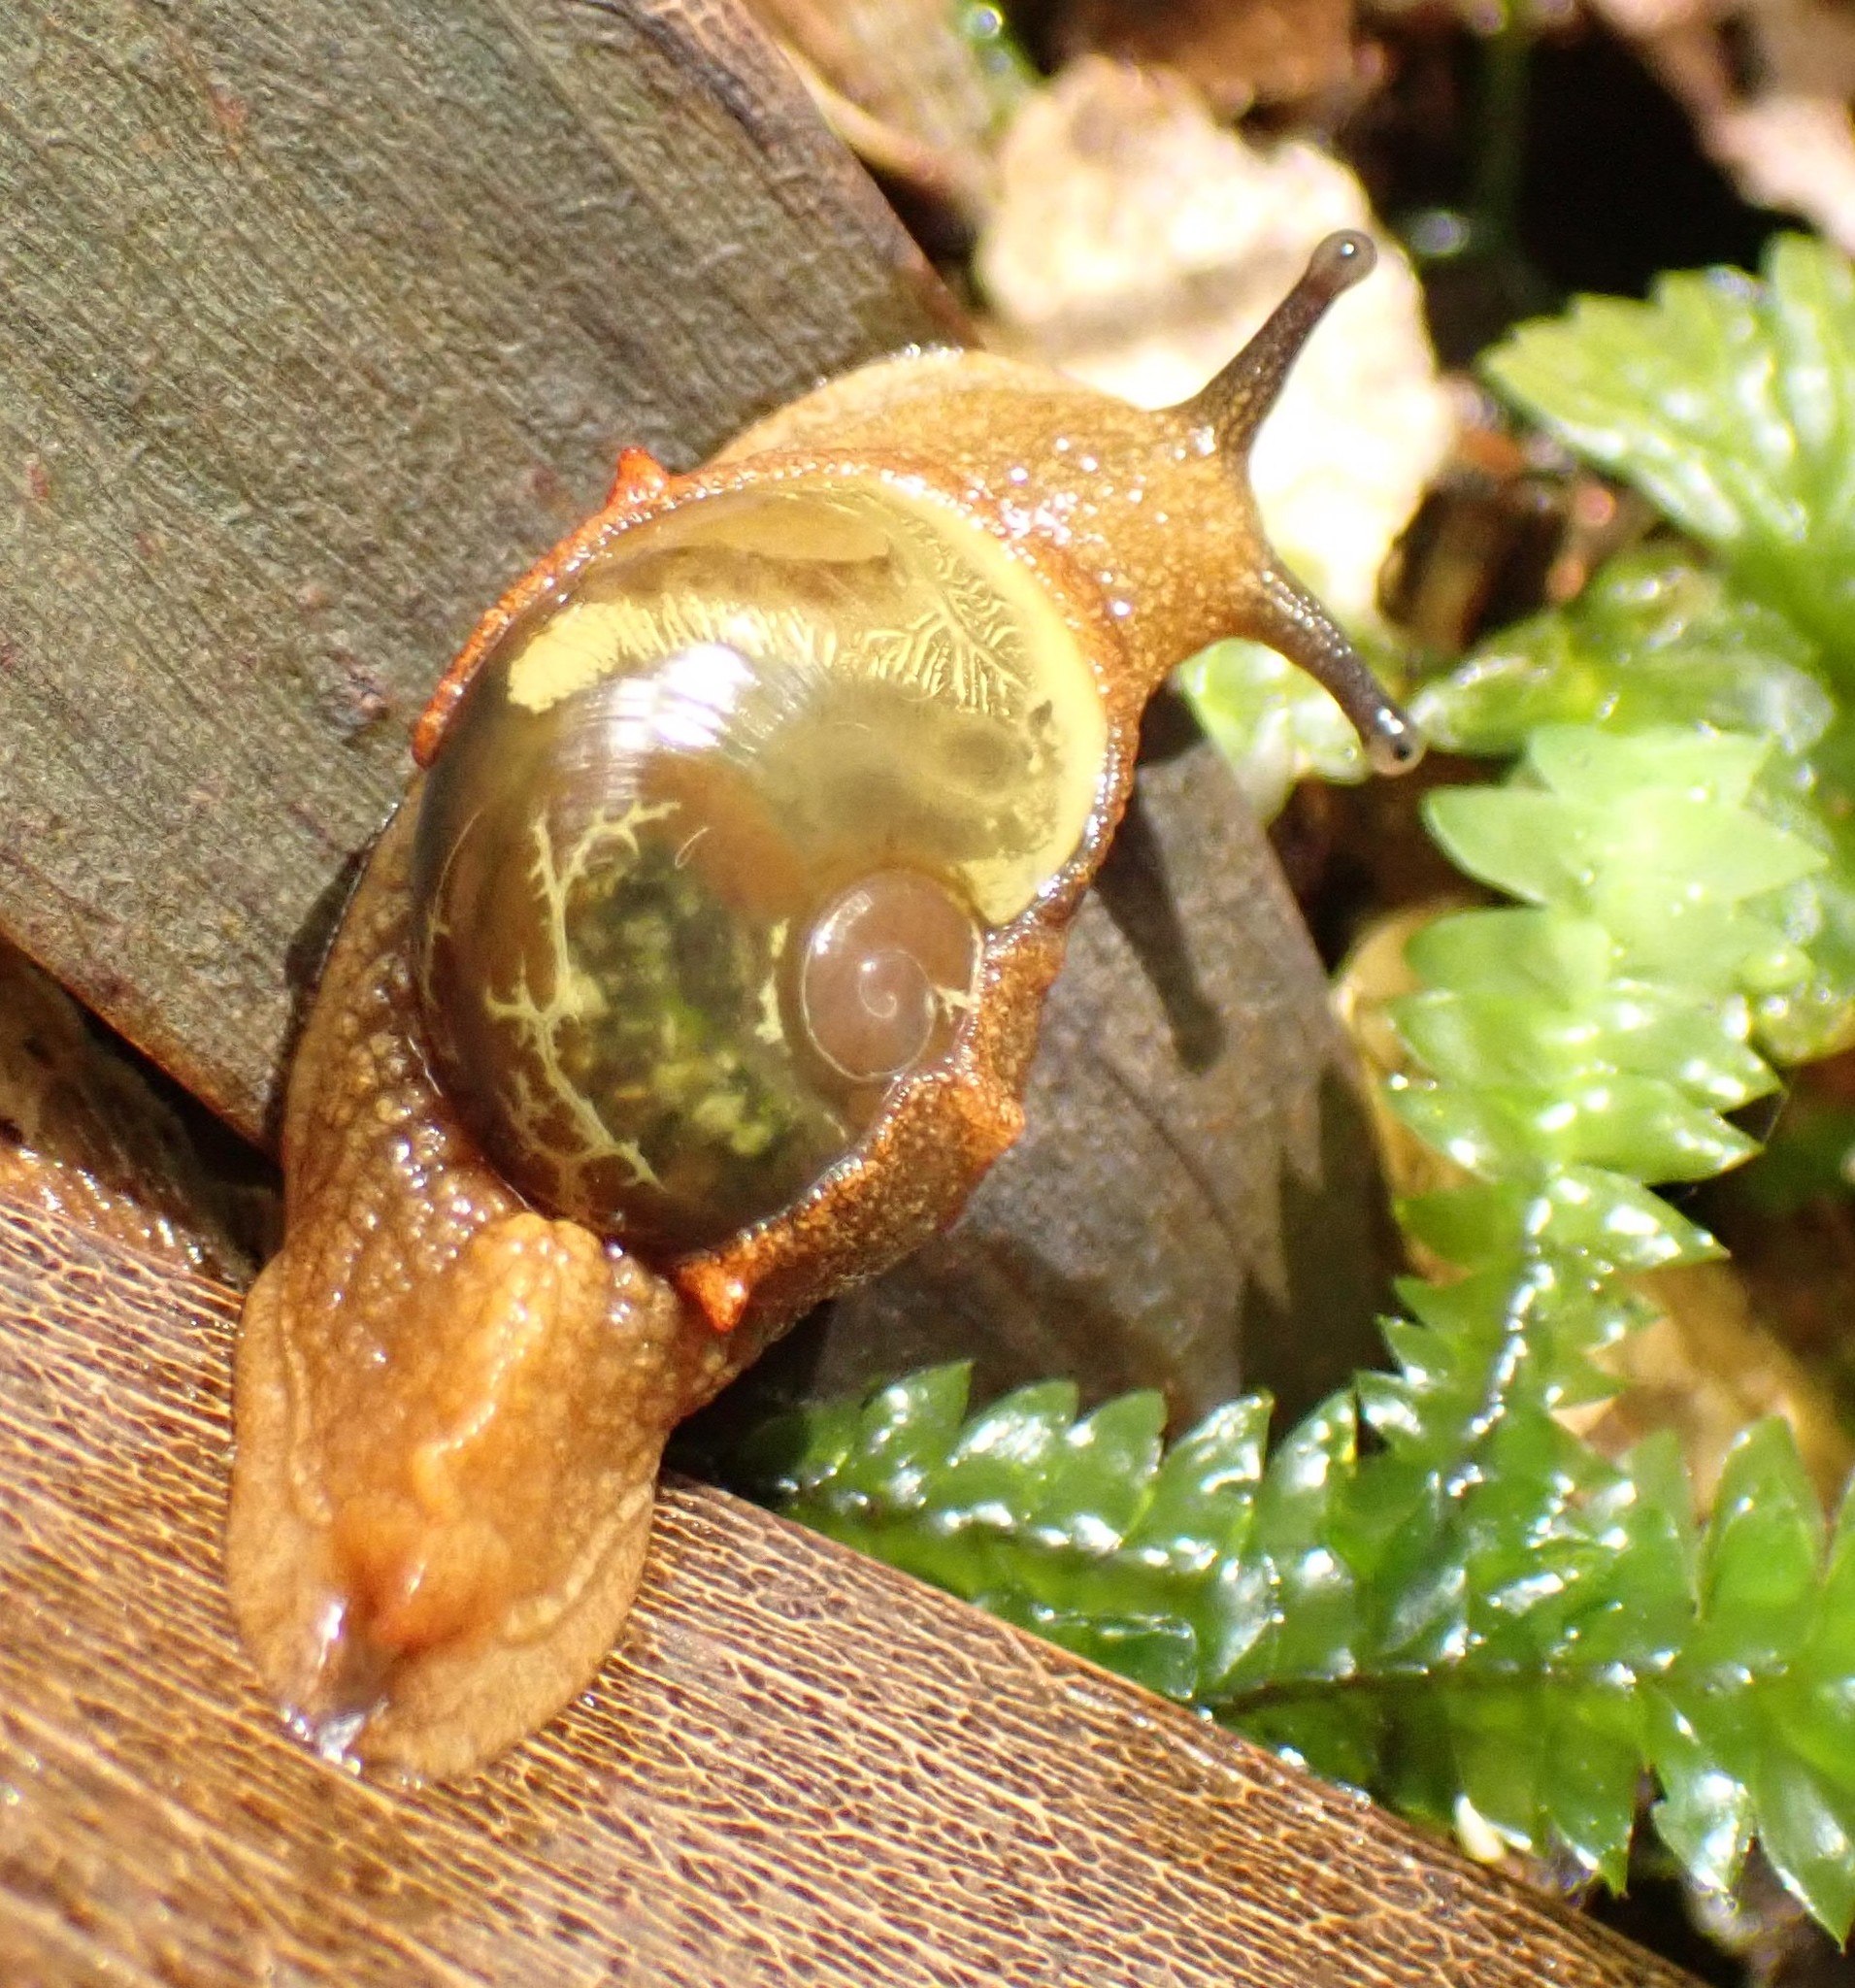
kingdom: Animalia
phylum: Mollusca
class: Gastropoda
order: Stylommatophora
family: Helicarionidae
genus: Helicarion
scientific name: Helicarion cuvieri
